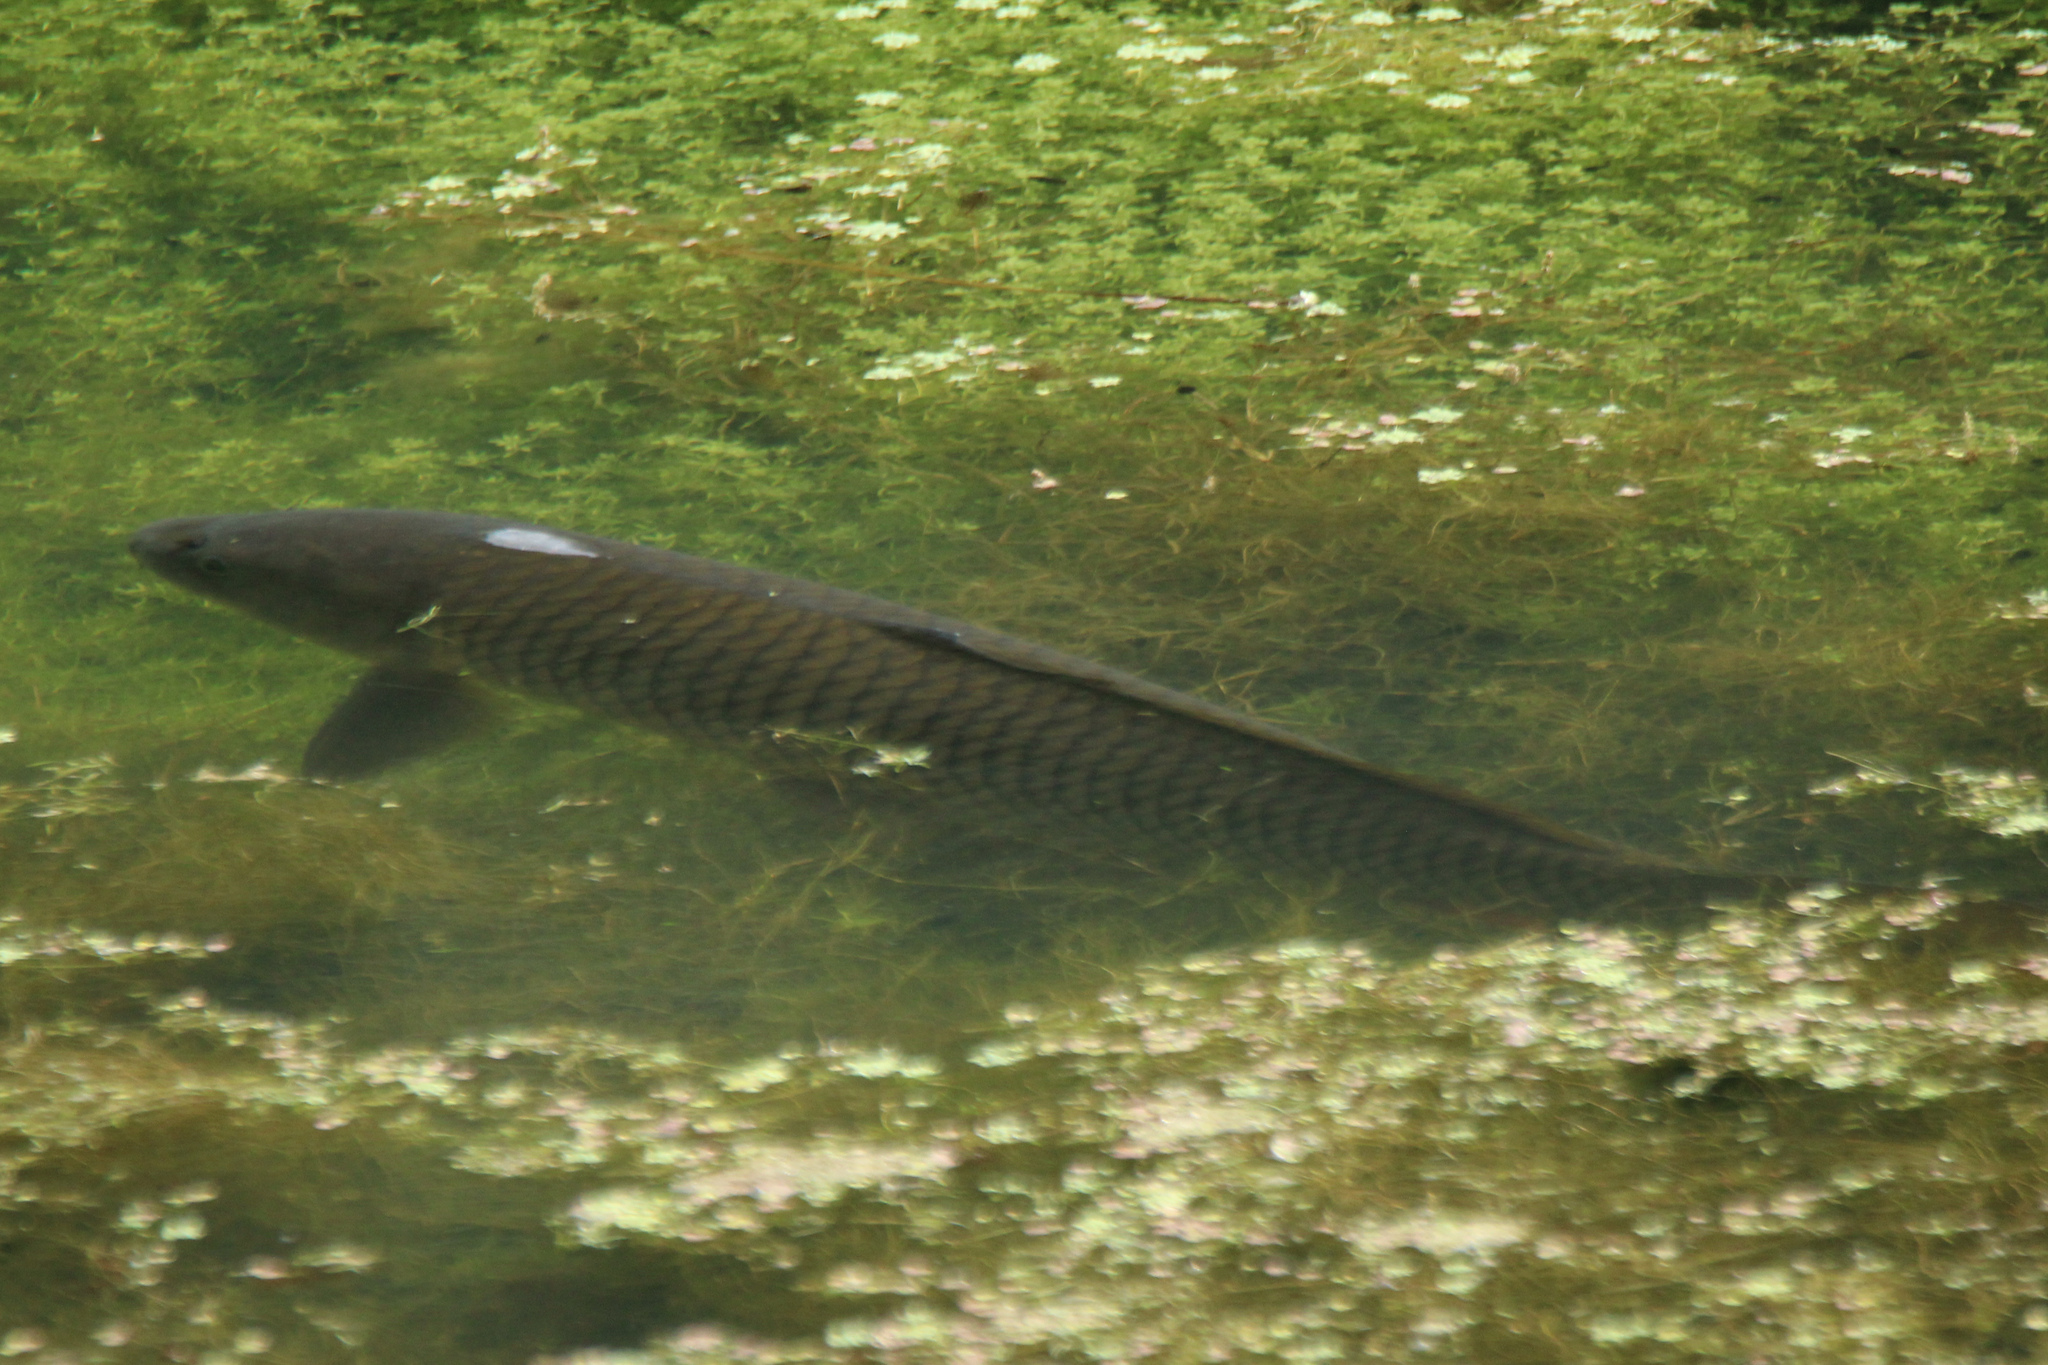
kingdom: Animalia
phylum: Chordata
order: Cypriniformes
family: Cyprinidae
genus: Cyprinus
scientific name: Cyprinus carpio
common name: Common carp
